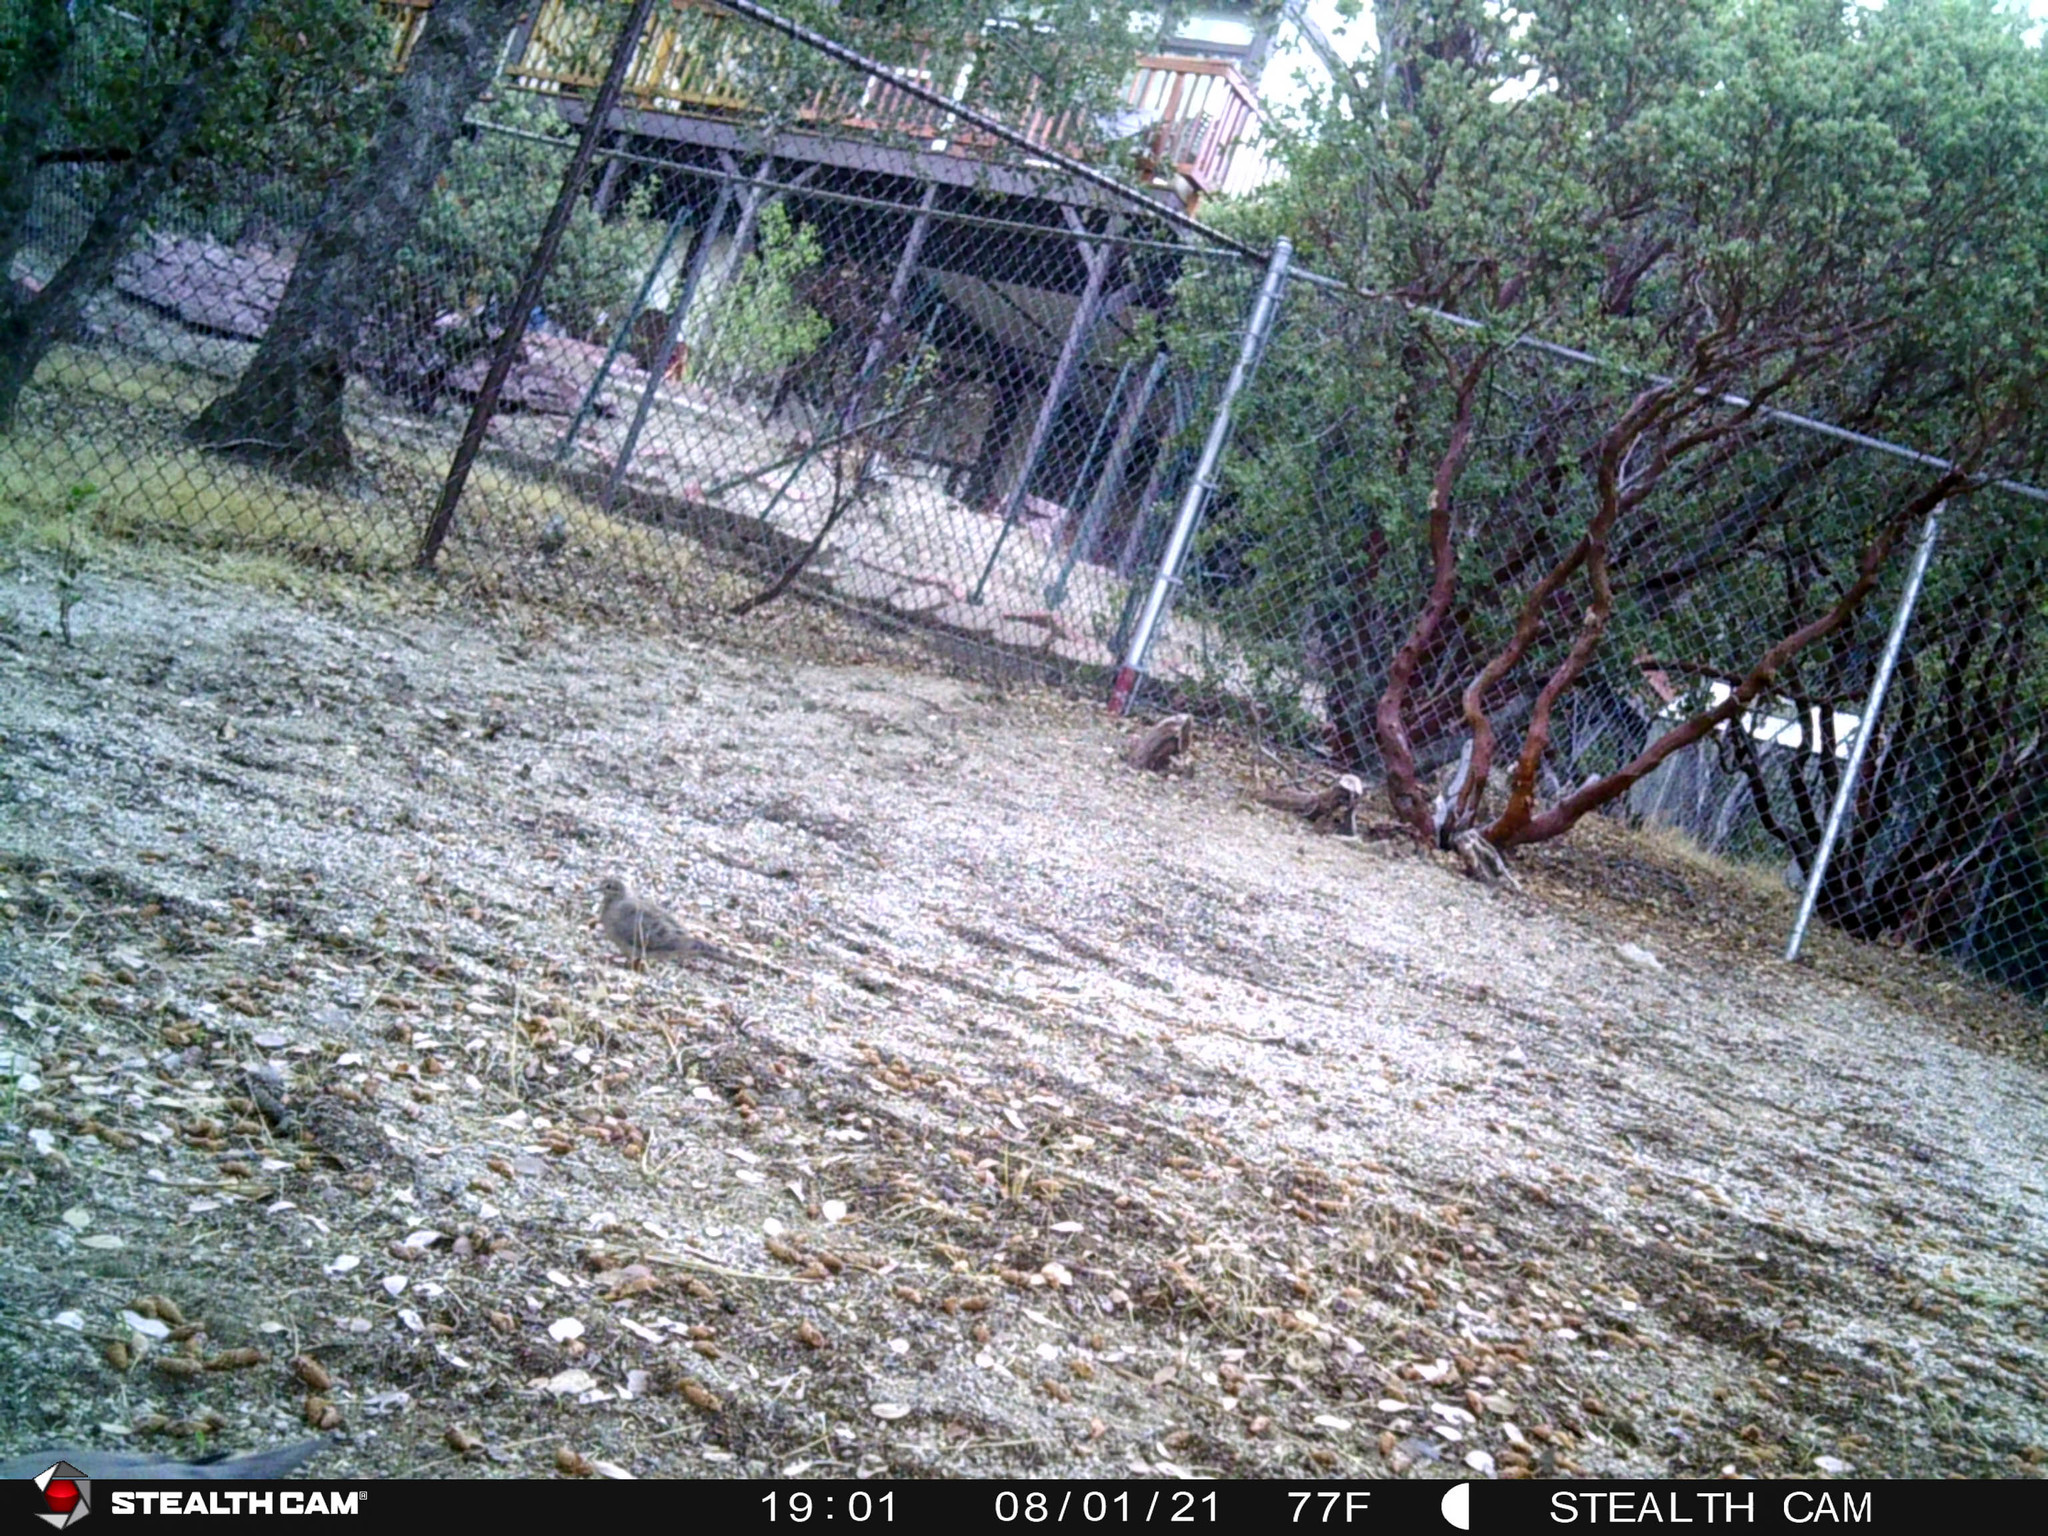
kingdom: Animalia
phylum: Chordata
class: Aves
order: Columbiformes
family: Columbidae
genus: Zenaida
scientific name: Zenaida macroura
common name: Mourning dove
